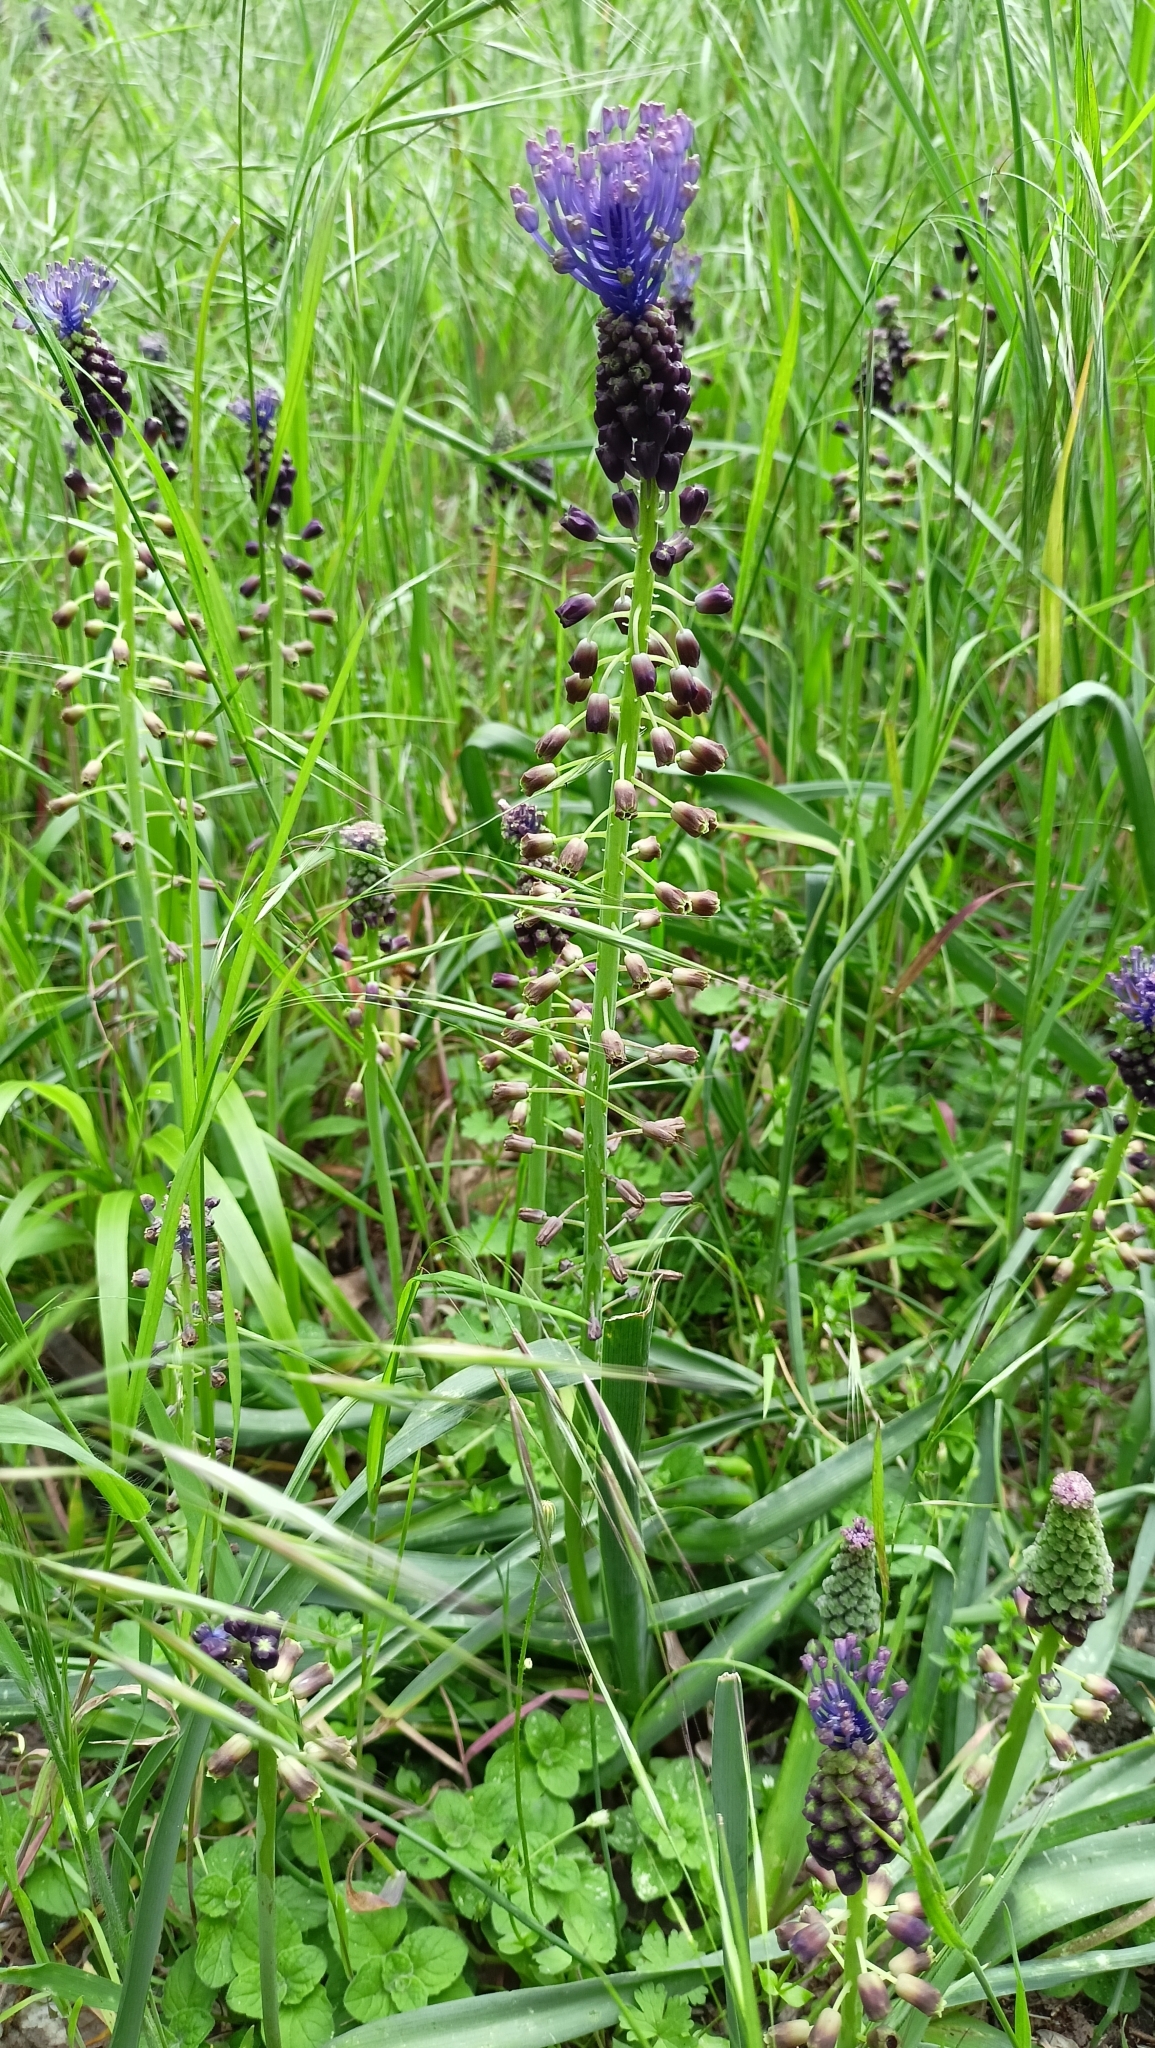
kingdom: Plantae
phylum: Tracheophyta
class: Liliopsida
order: Asparagales
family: Asparagaceae
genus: Muscari
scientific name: Muscari comosum
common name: Tassel hyacinth
